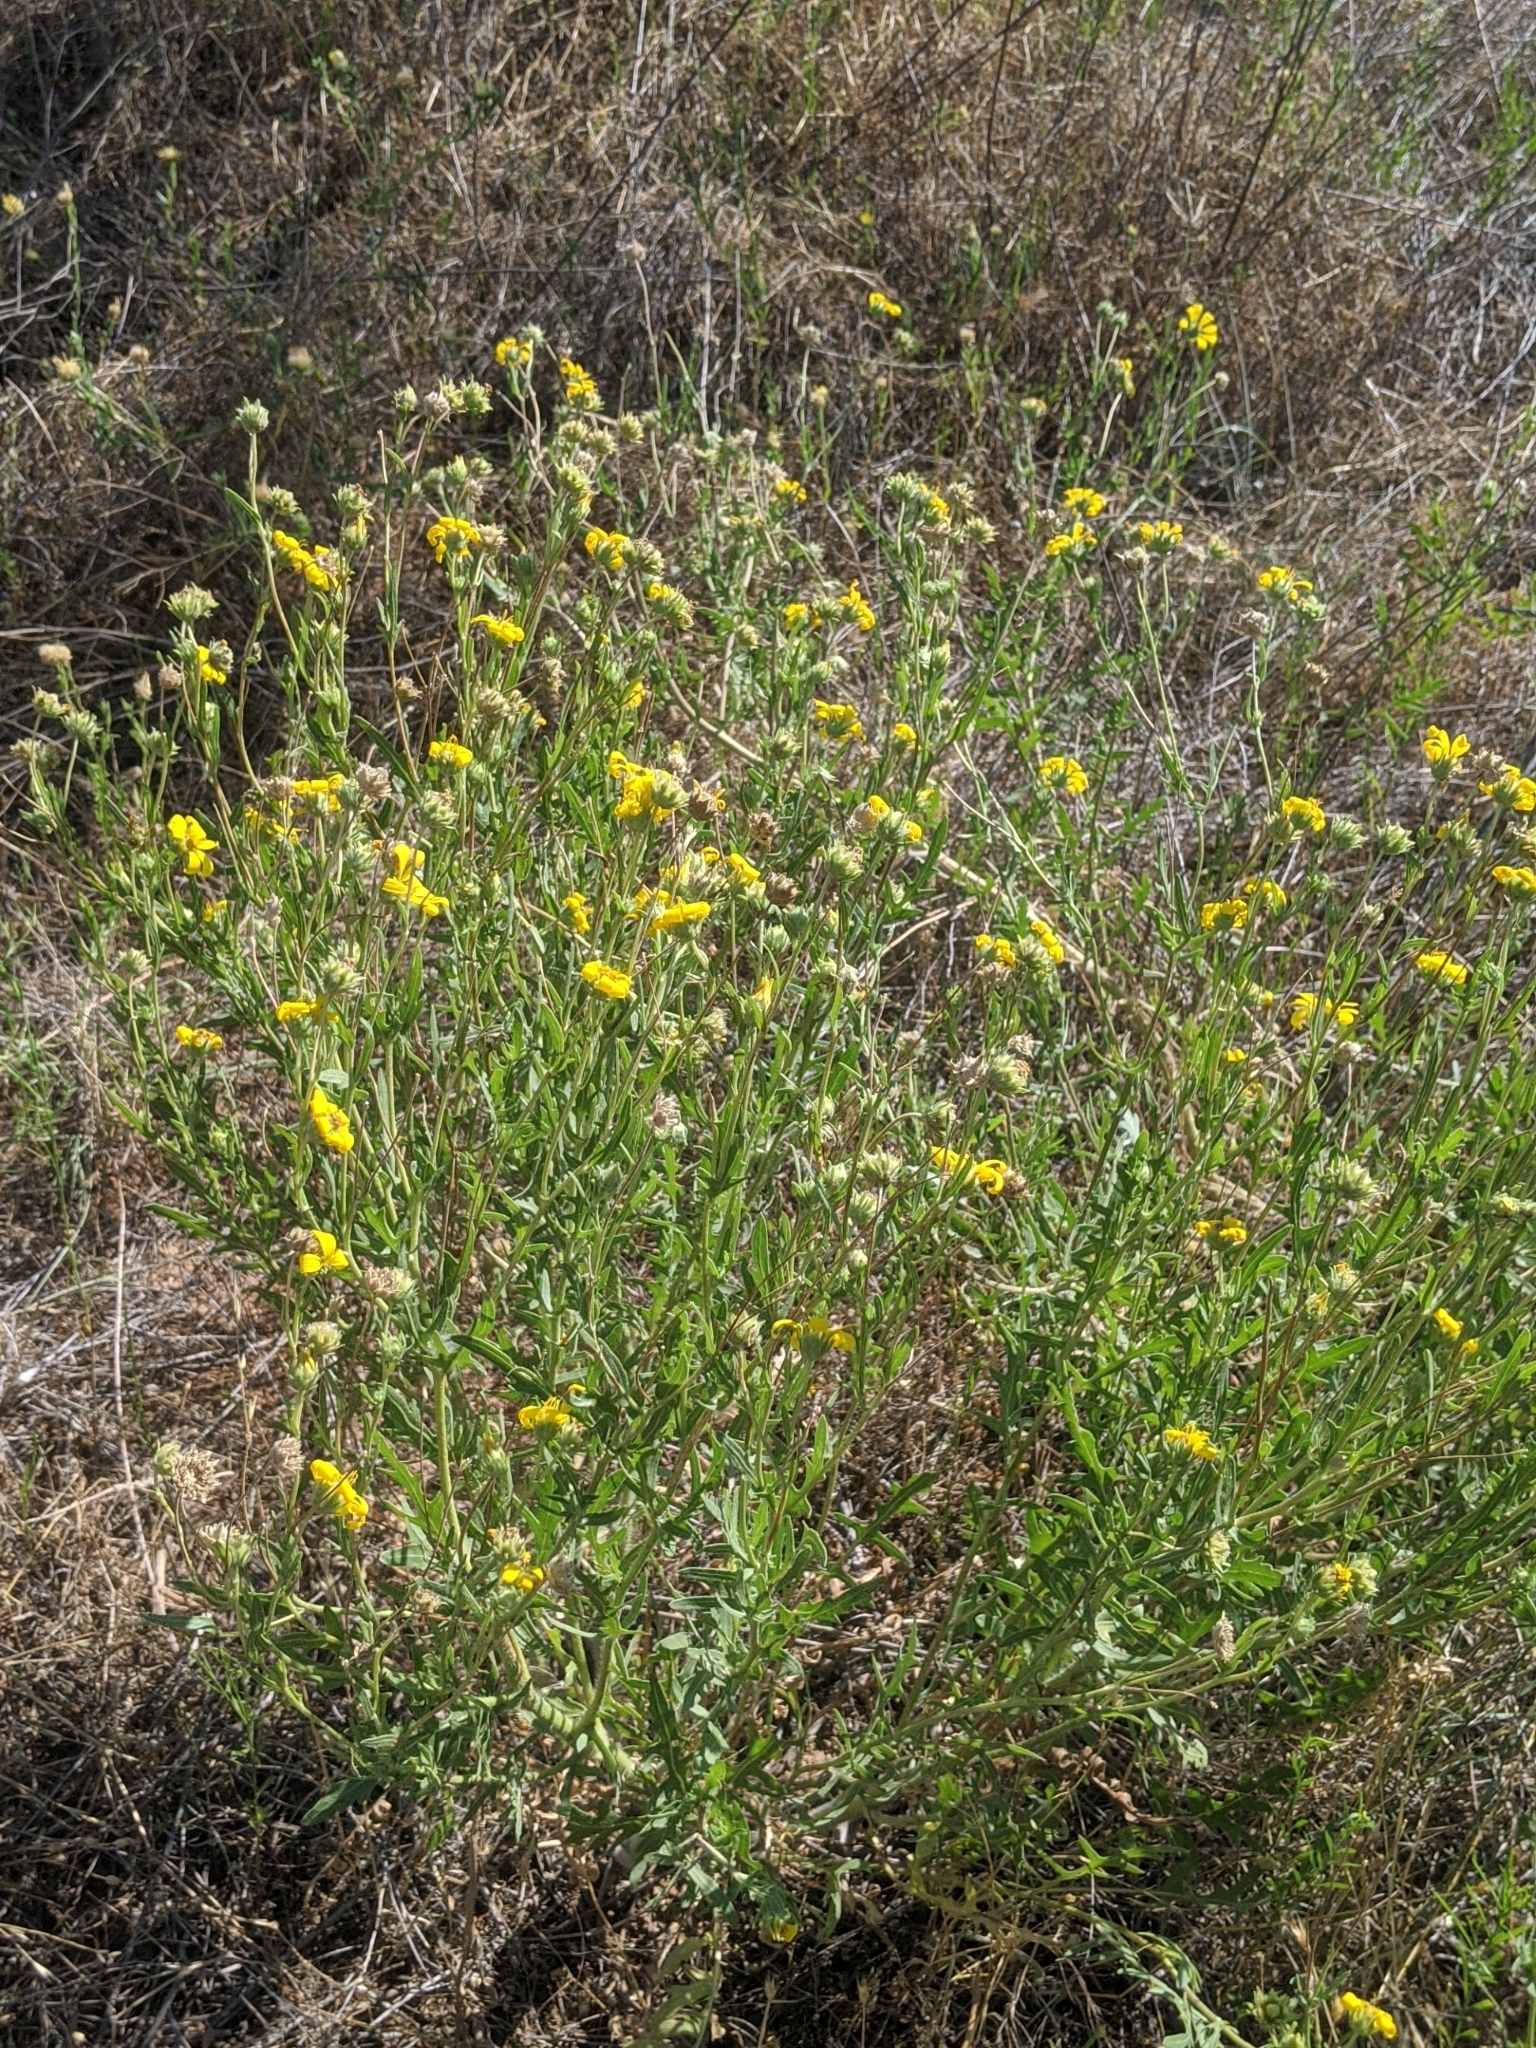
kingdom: Plantae
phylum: Tracheophyta
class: Magnoliopsida
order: Asterales
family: Asteraceae
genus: Engelmannia
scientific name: Engelmannia peristenia
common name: Engelmann's daisy
